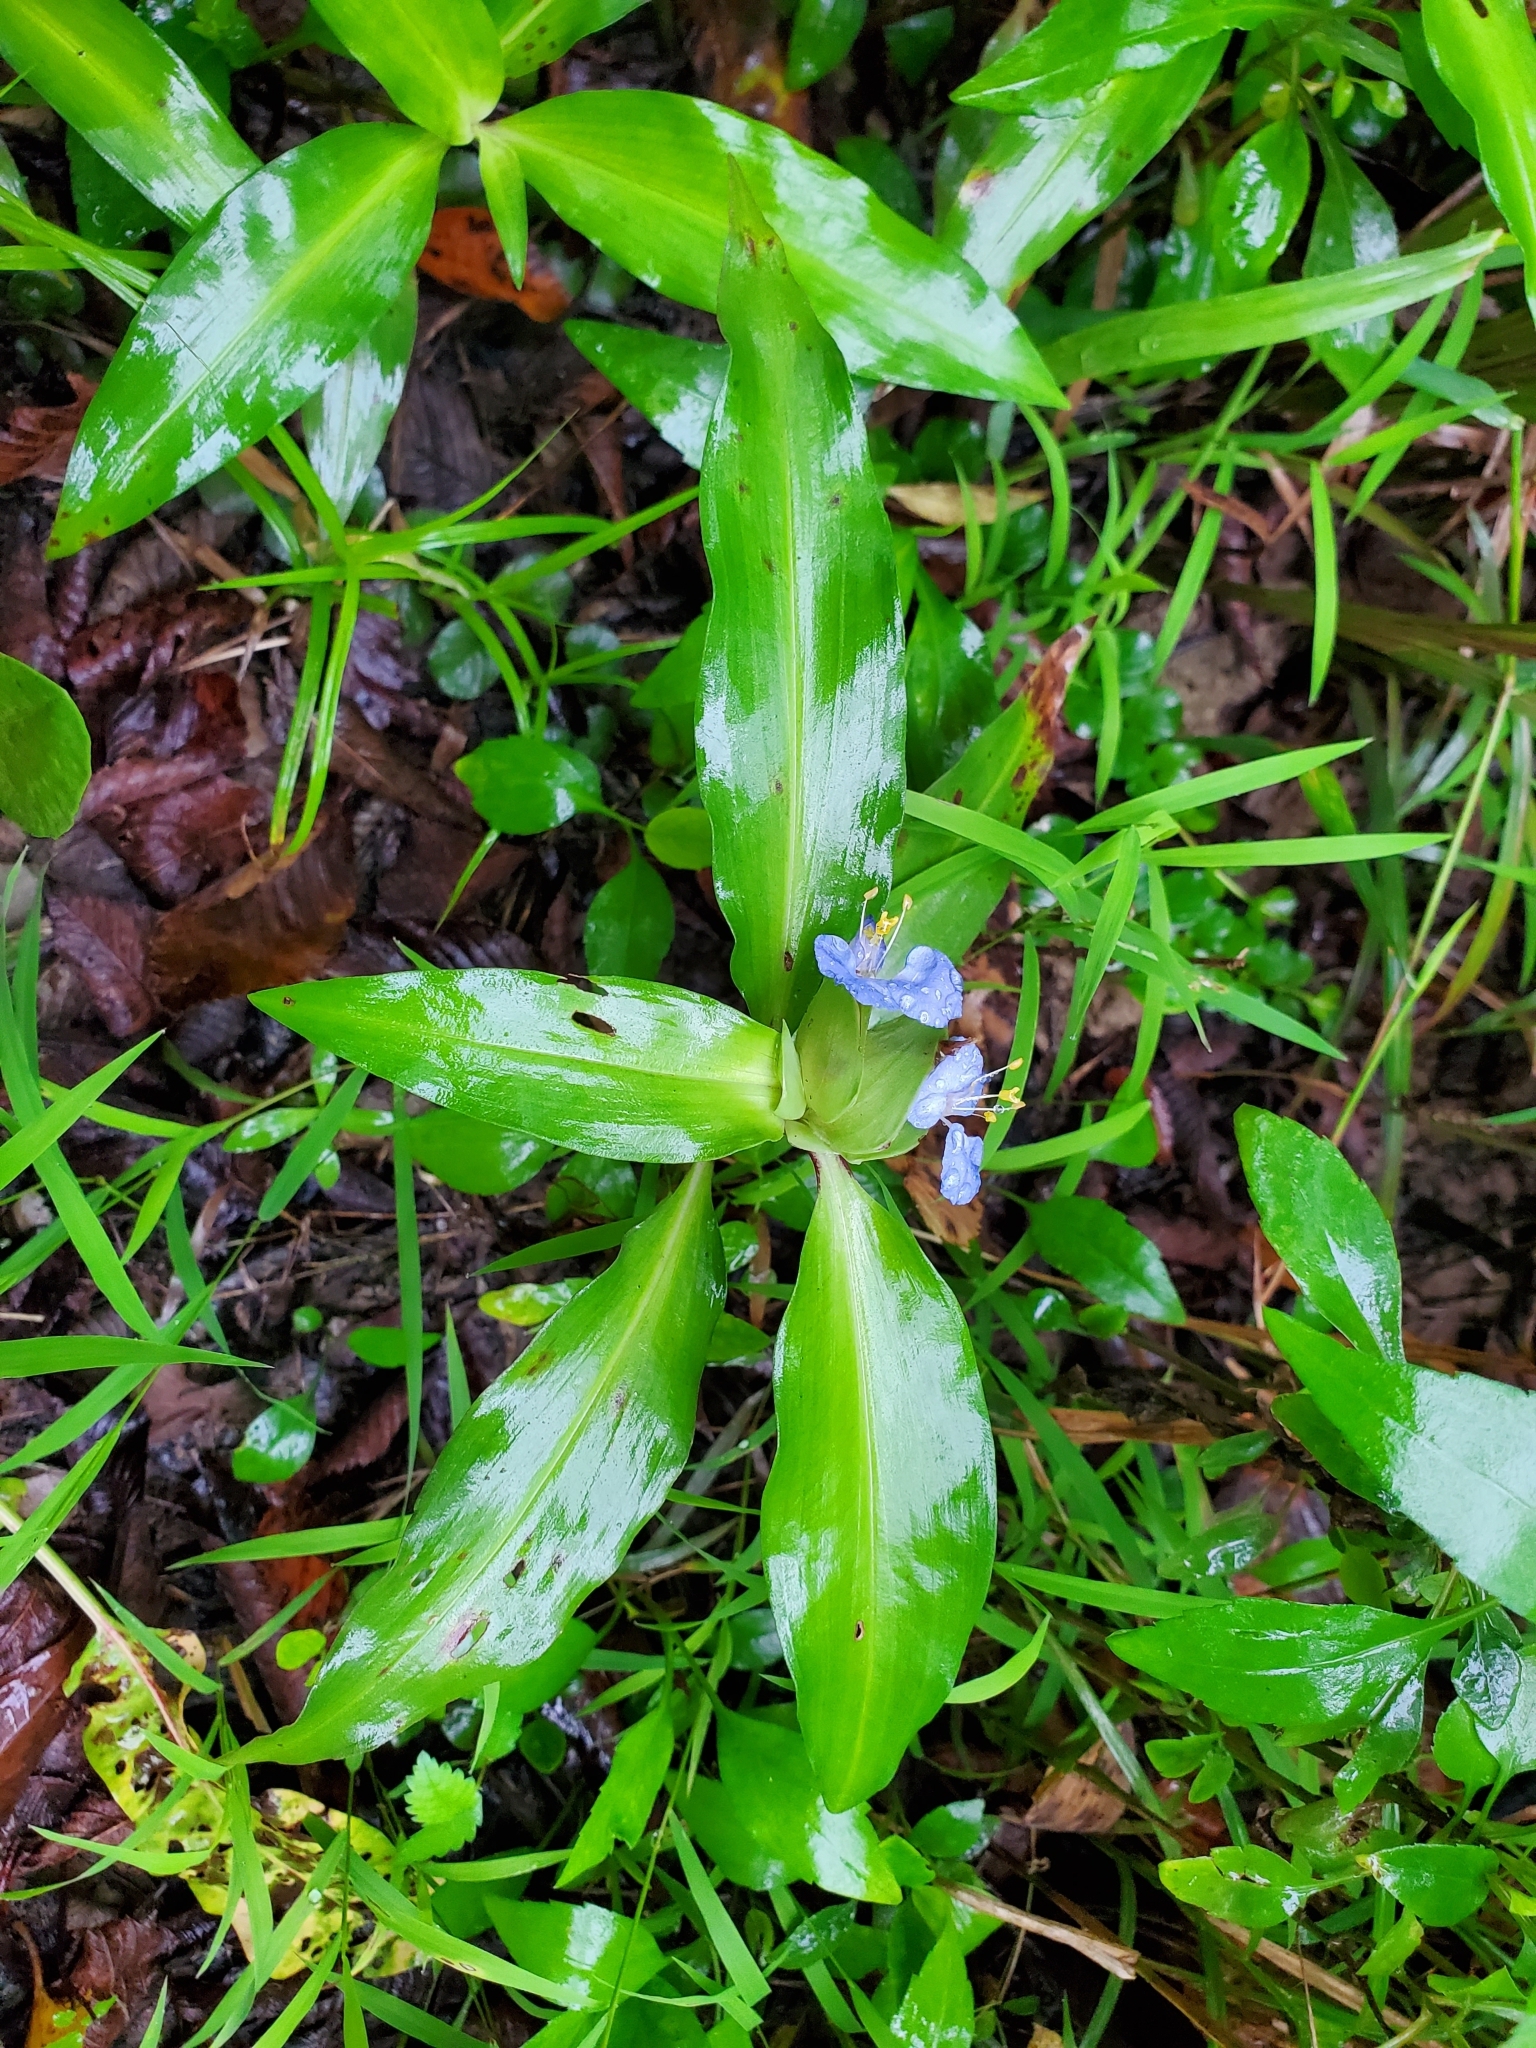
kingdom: Plantae
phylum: Tracheophyta
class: Liliopsida
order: Commelinales
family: Commelinaceae
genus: Commelina
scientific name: Commelina virginica
